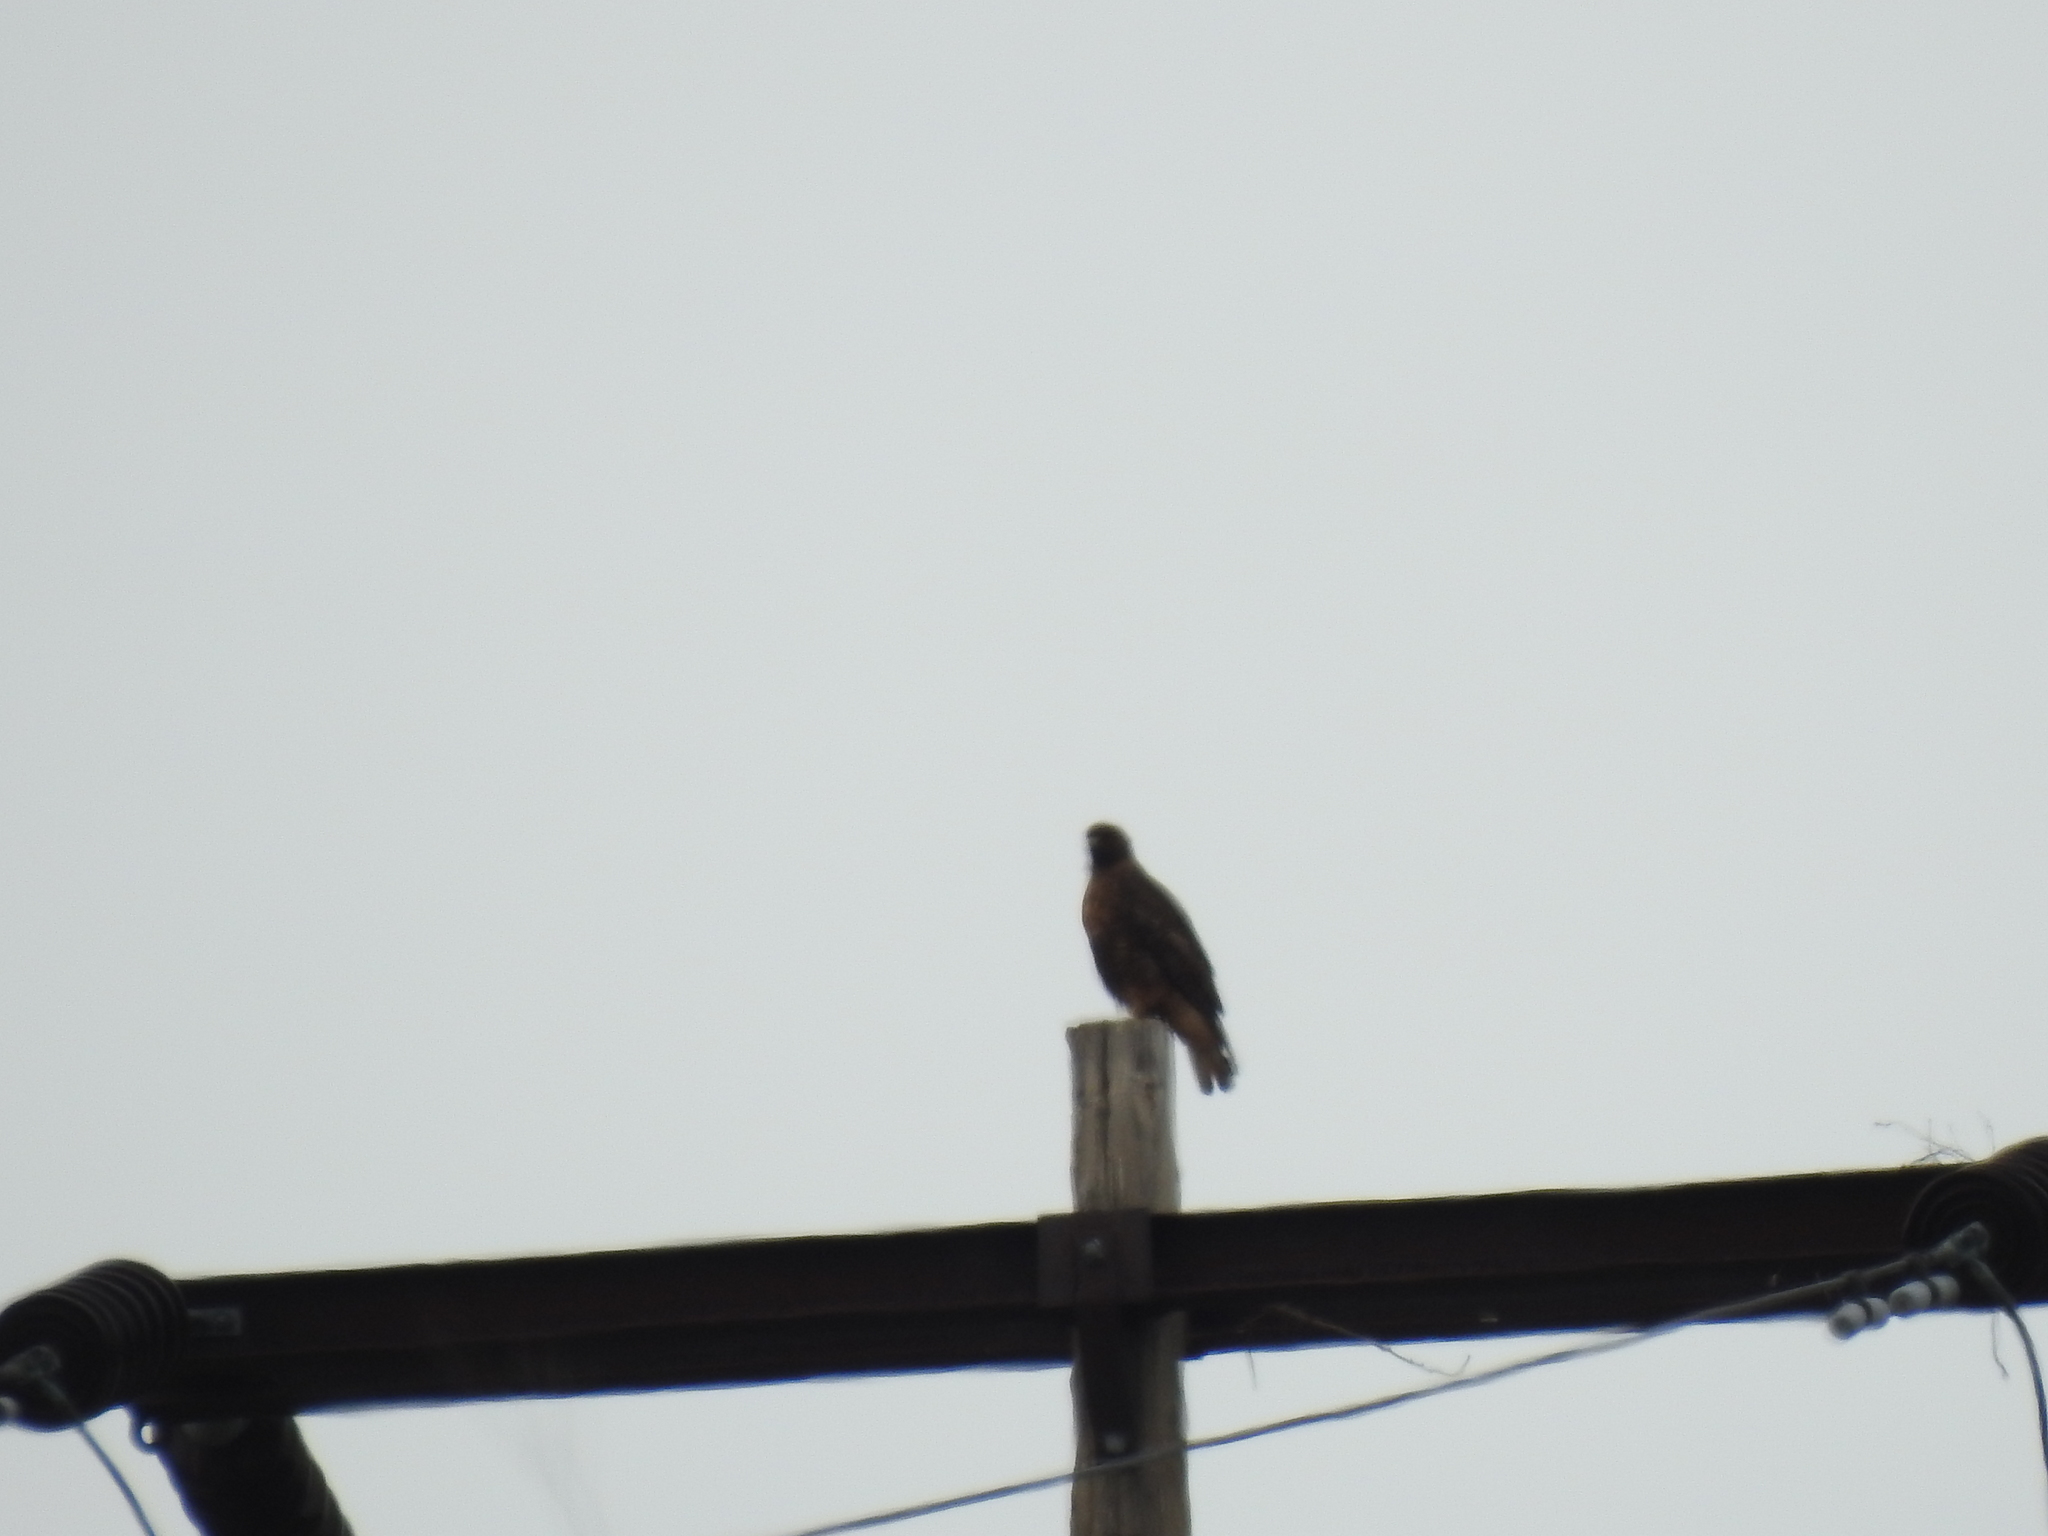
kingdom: Animalia
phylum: Chordata
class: Aves
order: Accipitriformes
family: Accipitridae
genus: Buteo
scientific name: Buteo jamaicensis
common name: Red-tailed hawk
